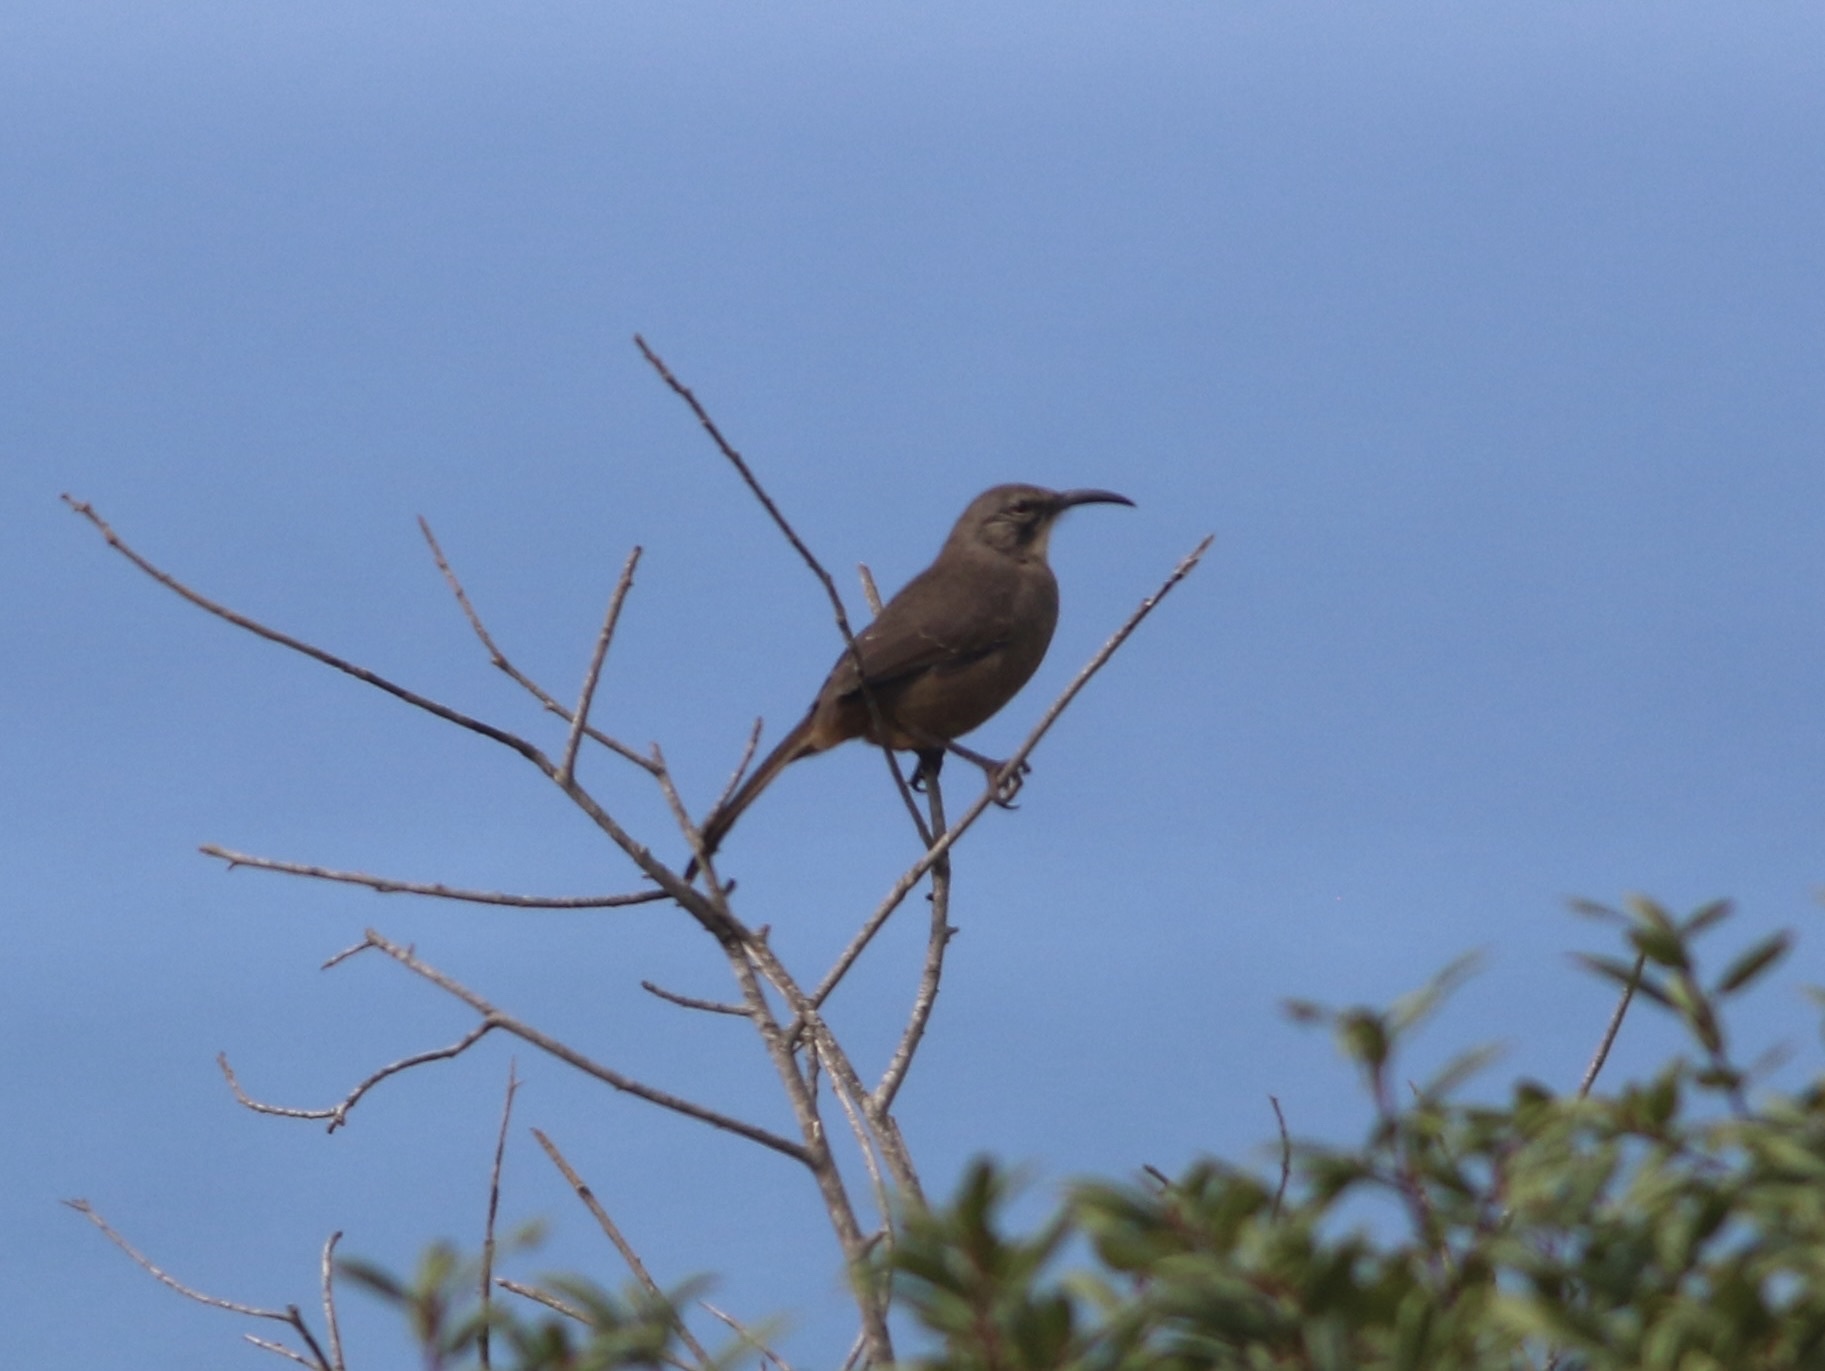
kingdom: Animalia
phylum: Chordata
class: Aves
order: Passeriformes
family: Mimidae
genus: Toxostoma
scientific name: Toxostoma redivivum
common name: California thrasher
